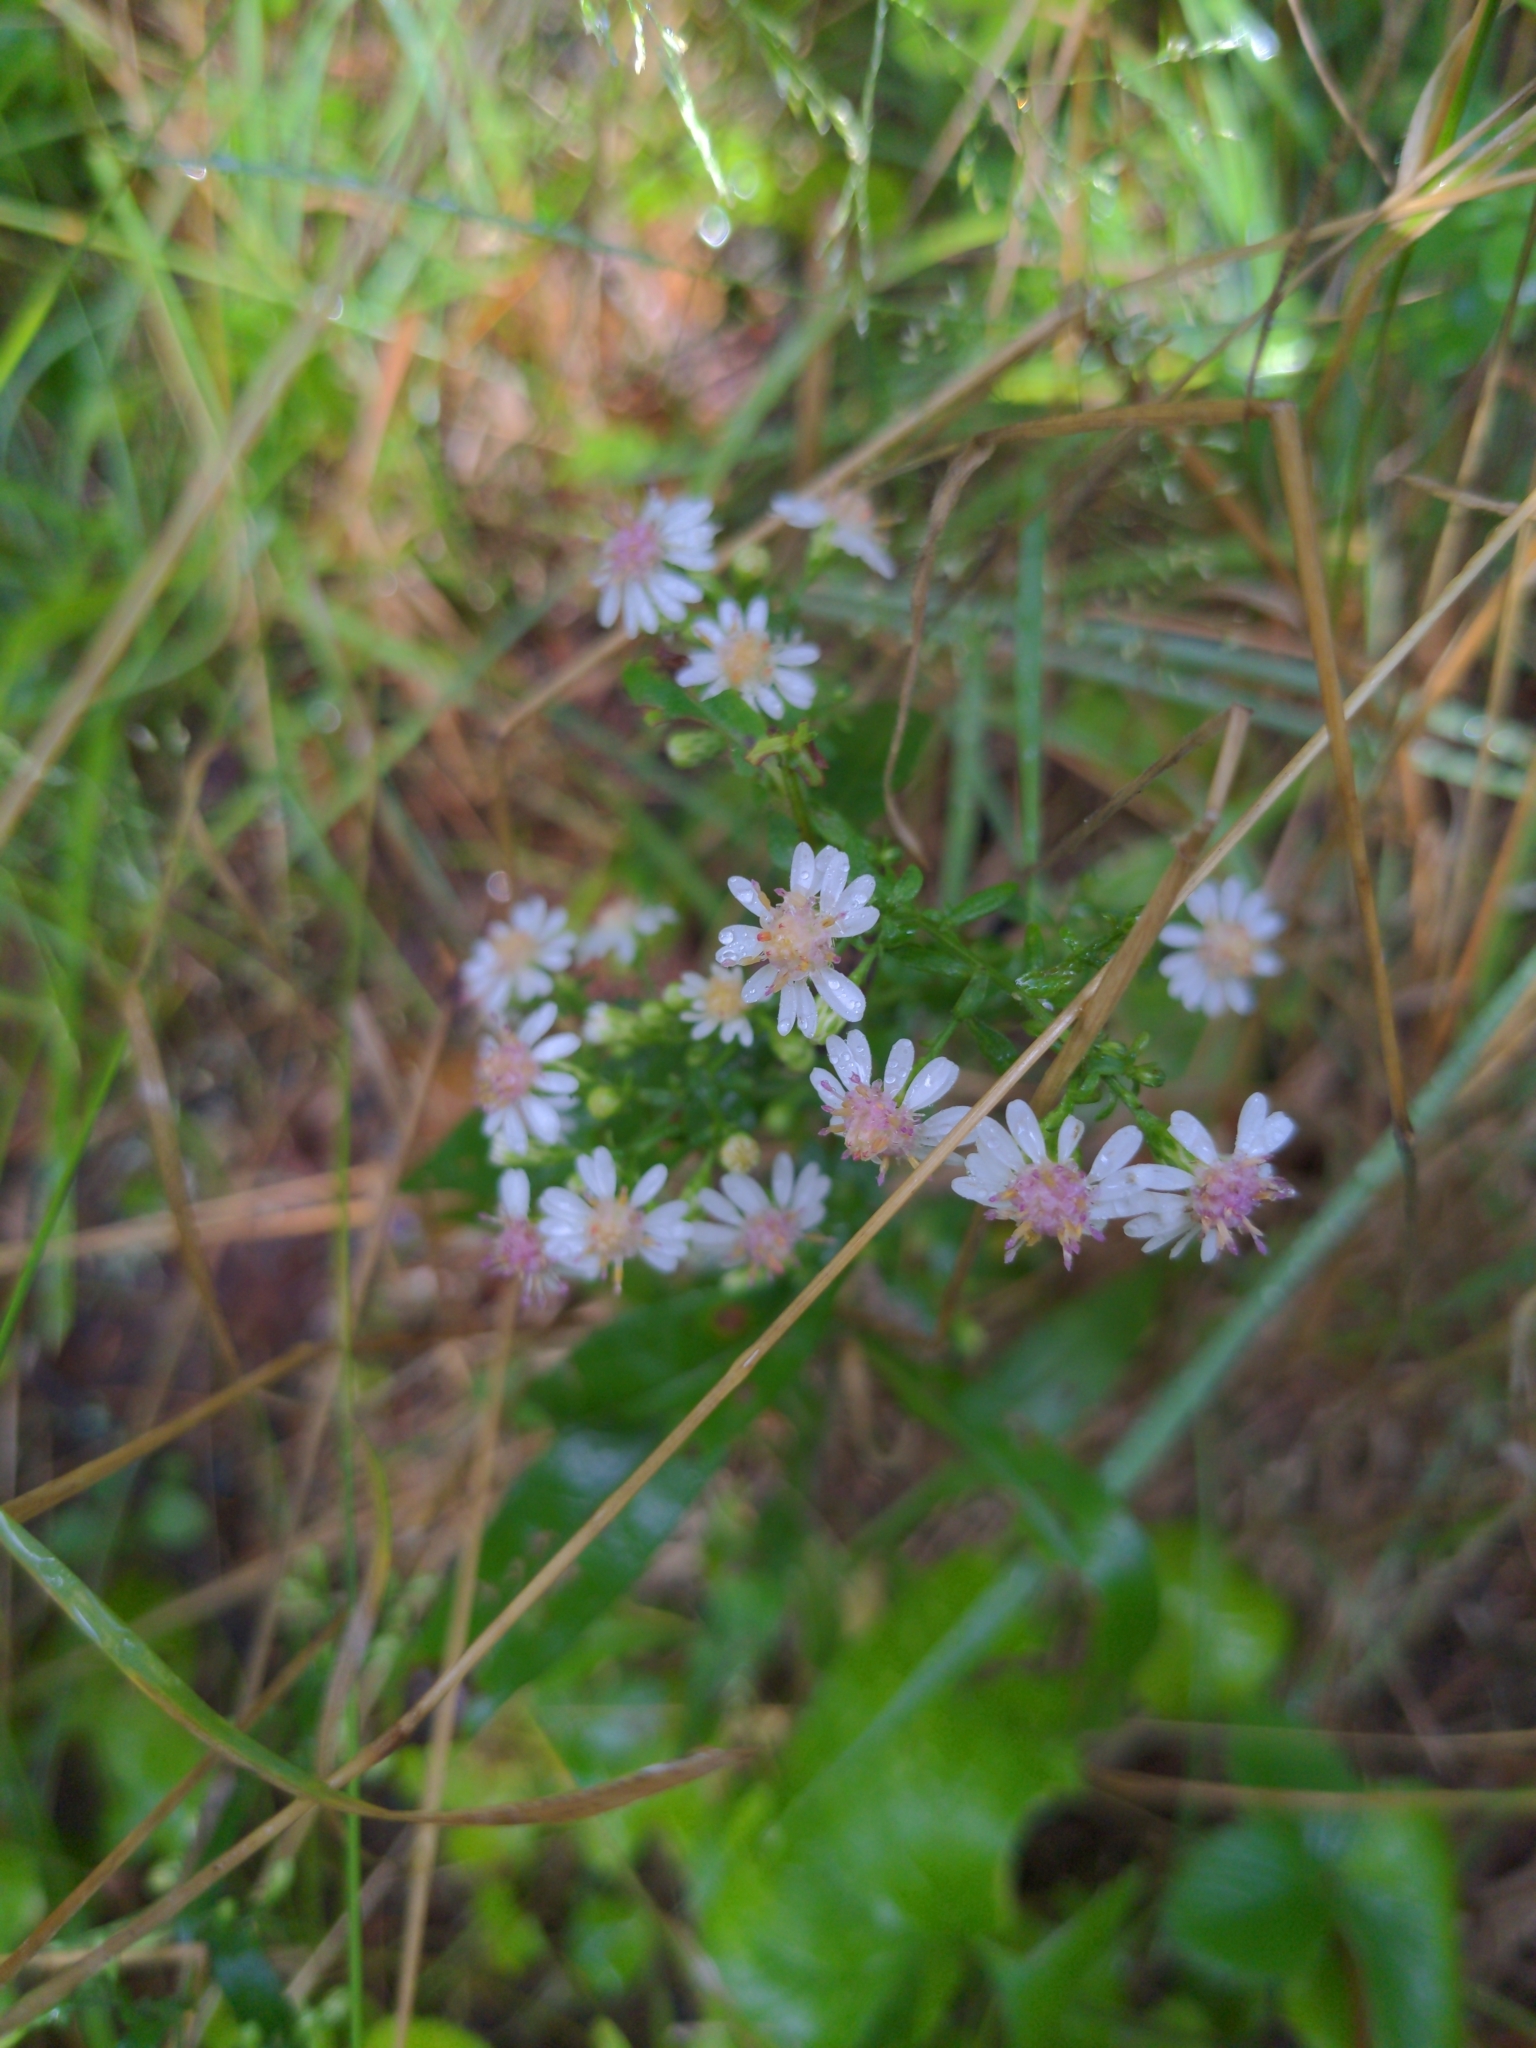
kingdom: Plantae
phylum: Tracheophyta
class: Magnoliopsida
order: Asterales
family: Asteraceae
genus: Symphyotrichum
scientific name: Symphyotrichum lateriflorum
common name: Calico aster
